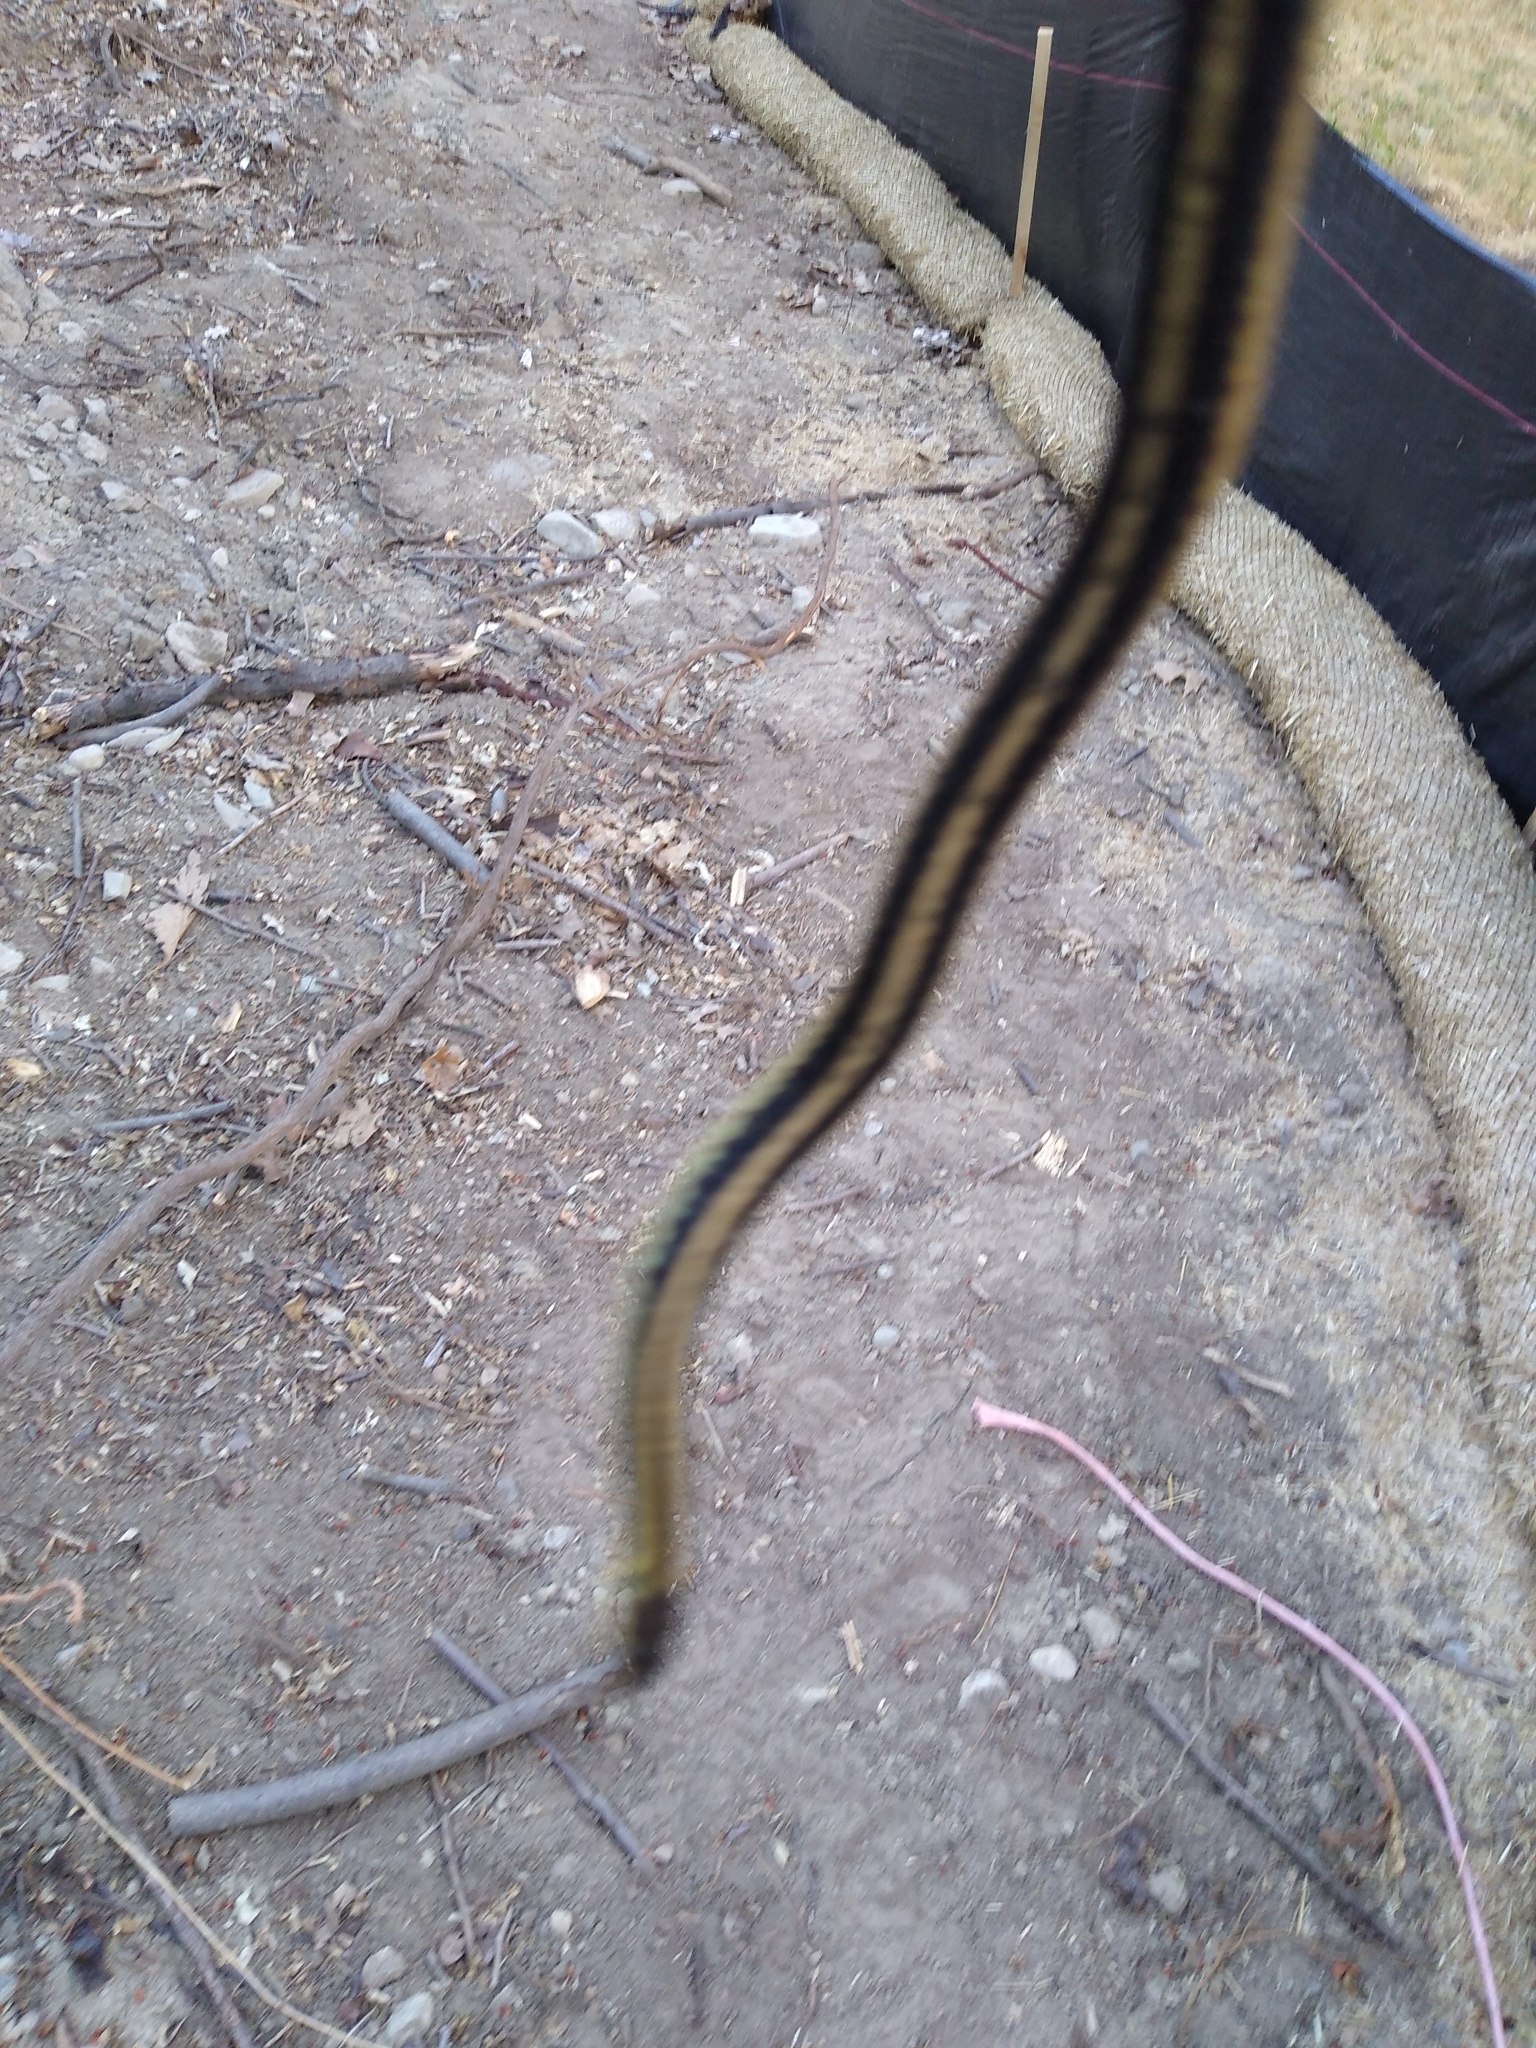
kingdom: Animalia
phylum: Chordata
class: Squamata
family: Colubridae
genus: Thamnophis
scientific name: Thamnophis sirtalis
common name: Common garter snake
